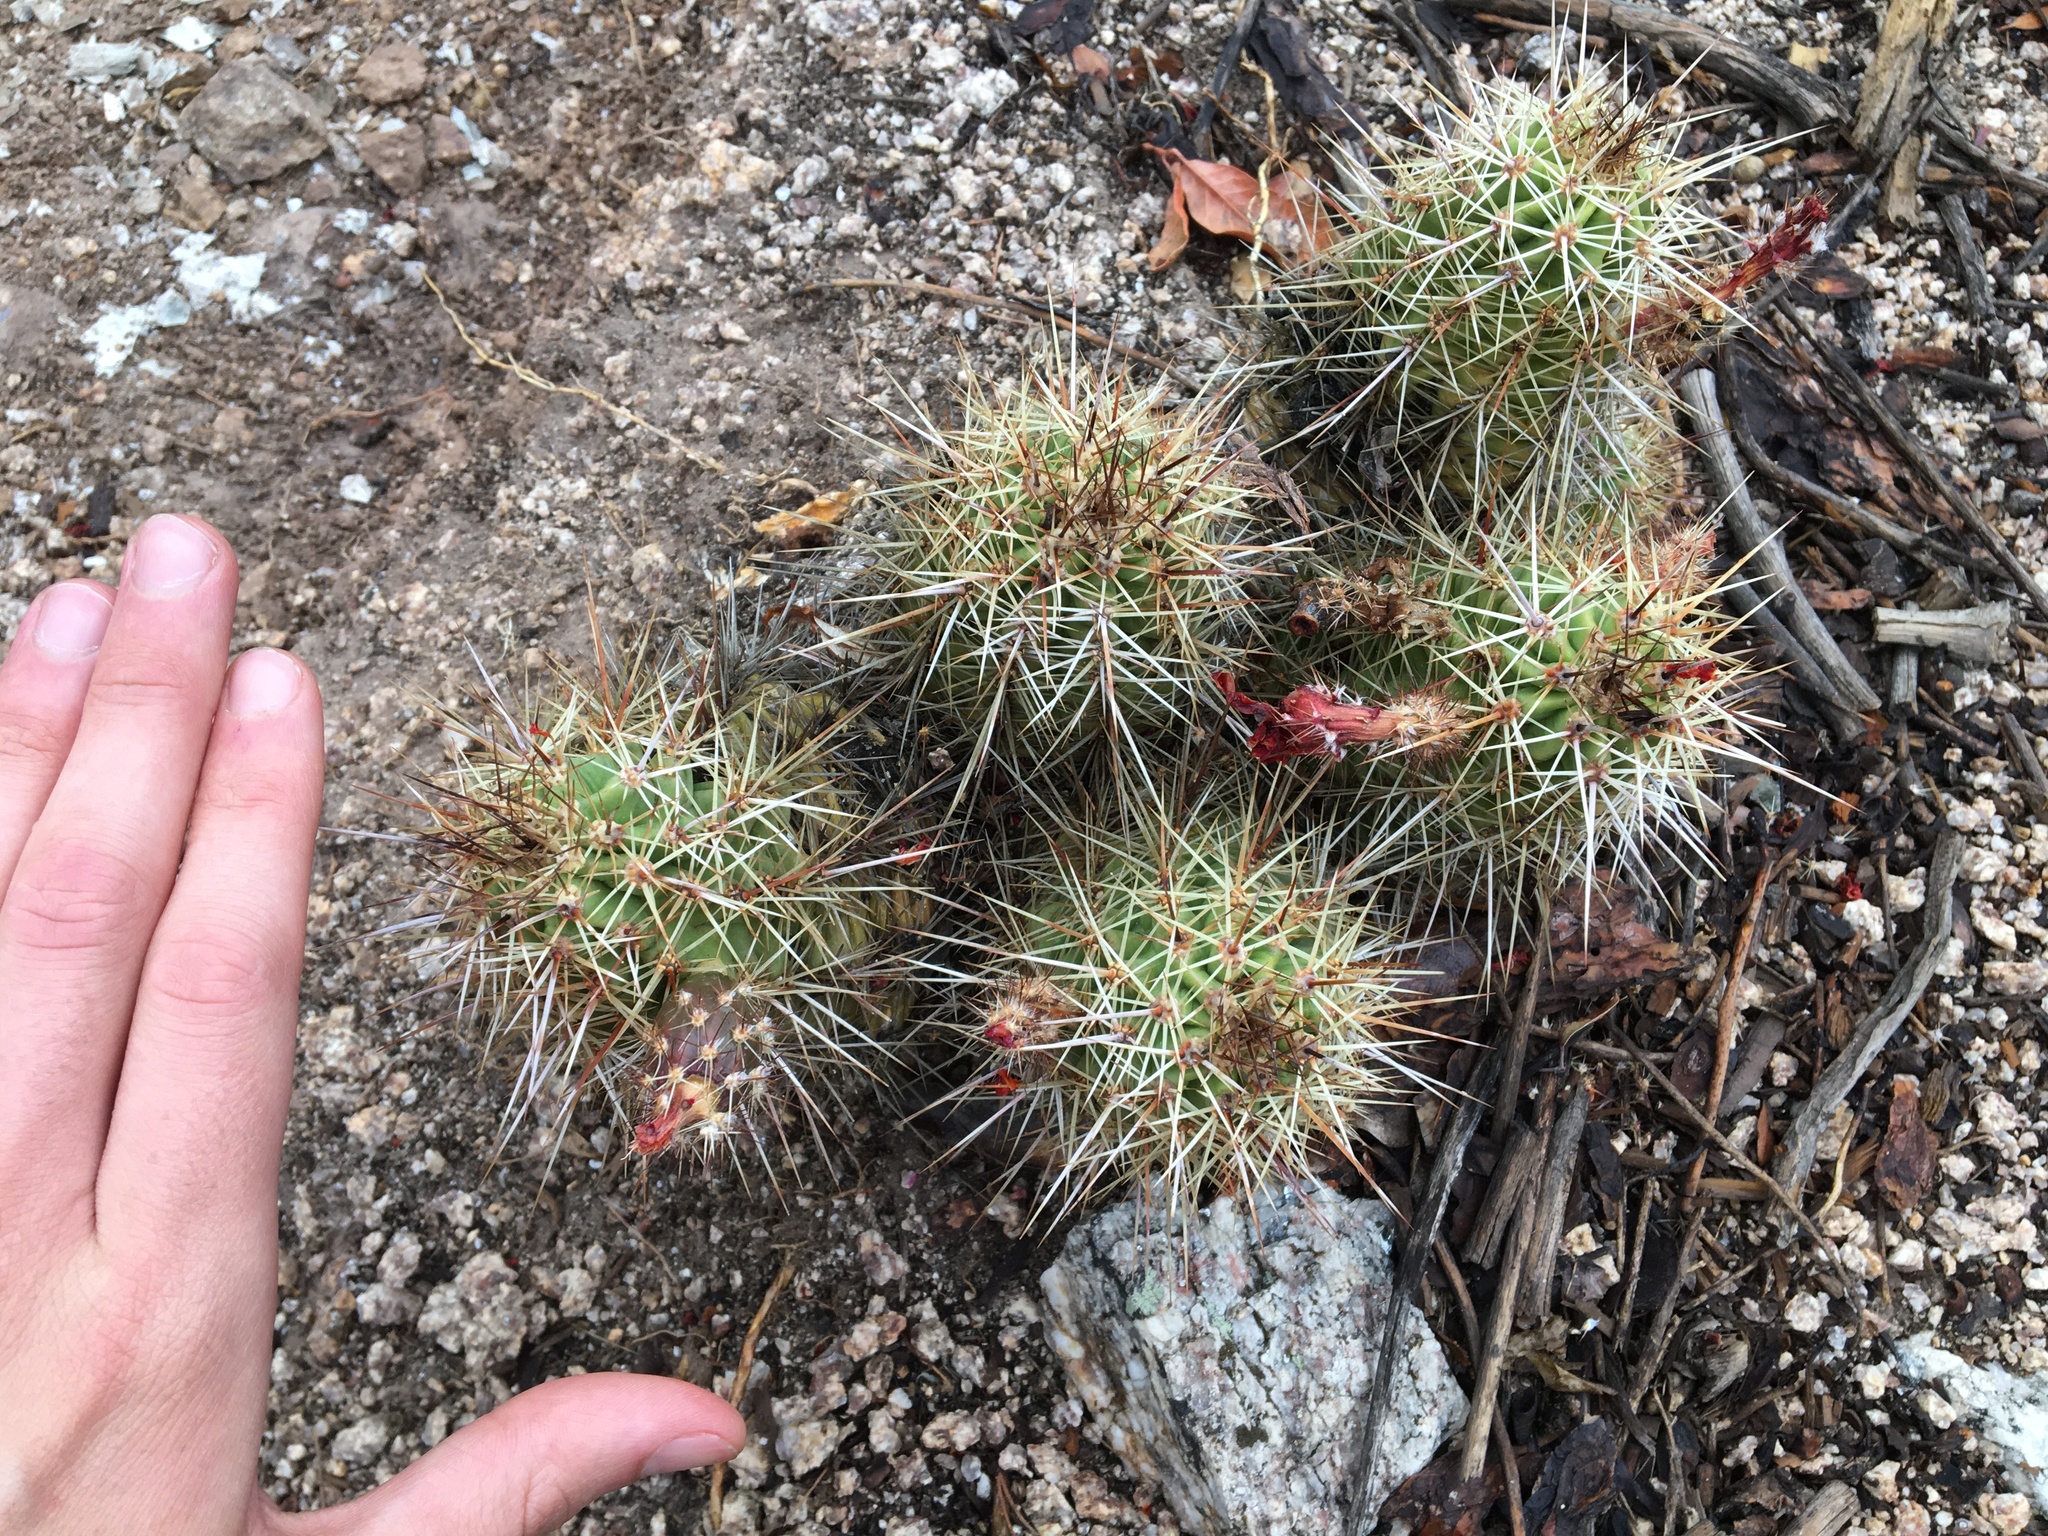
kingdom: Plantae
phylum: Tracheophyta
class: Magnoliopsida
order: Caryophyllales
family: Cactaceae
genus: Echinocereus
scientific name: Echinocereus coccineus
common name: Scarlet hedgehog cactus
